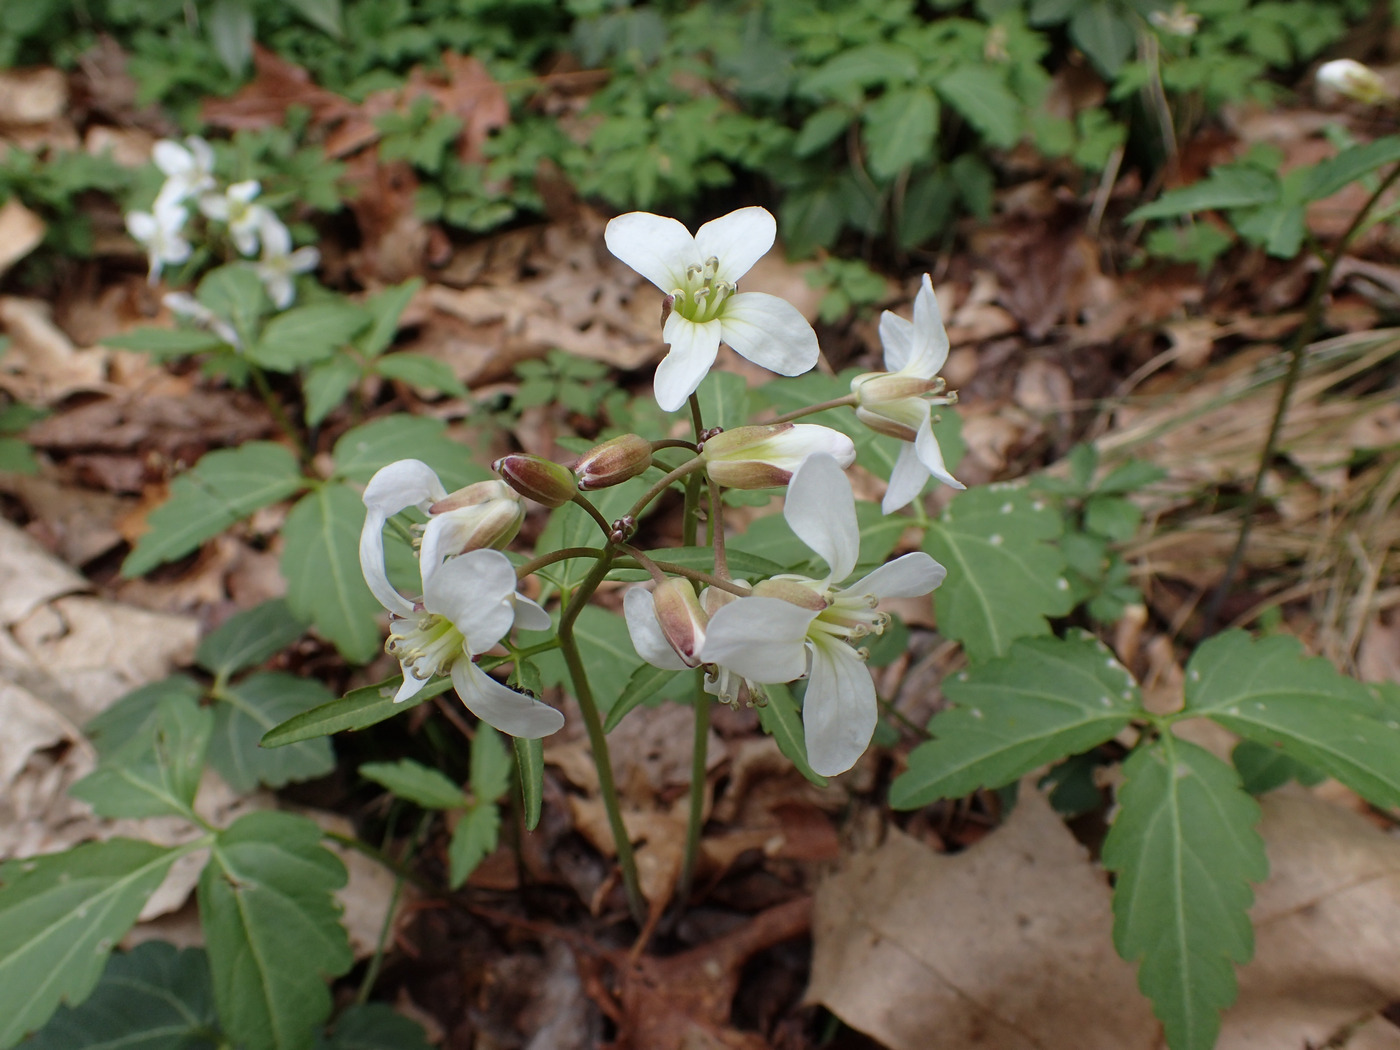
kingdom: Plantae
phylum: Tracheophyta
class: Magnoliopsida
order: Brassicales
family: Brassicaceae
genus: Cardamine
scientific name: Cardamine angustata
